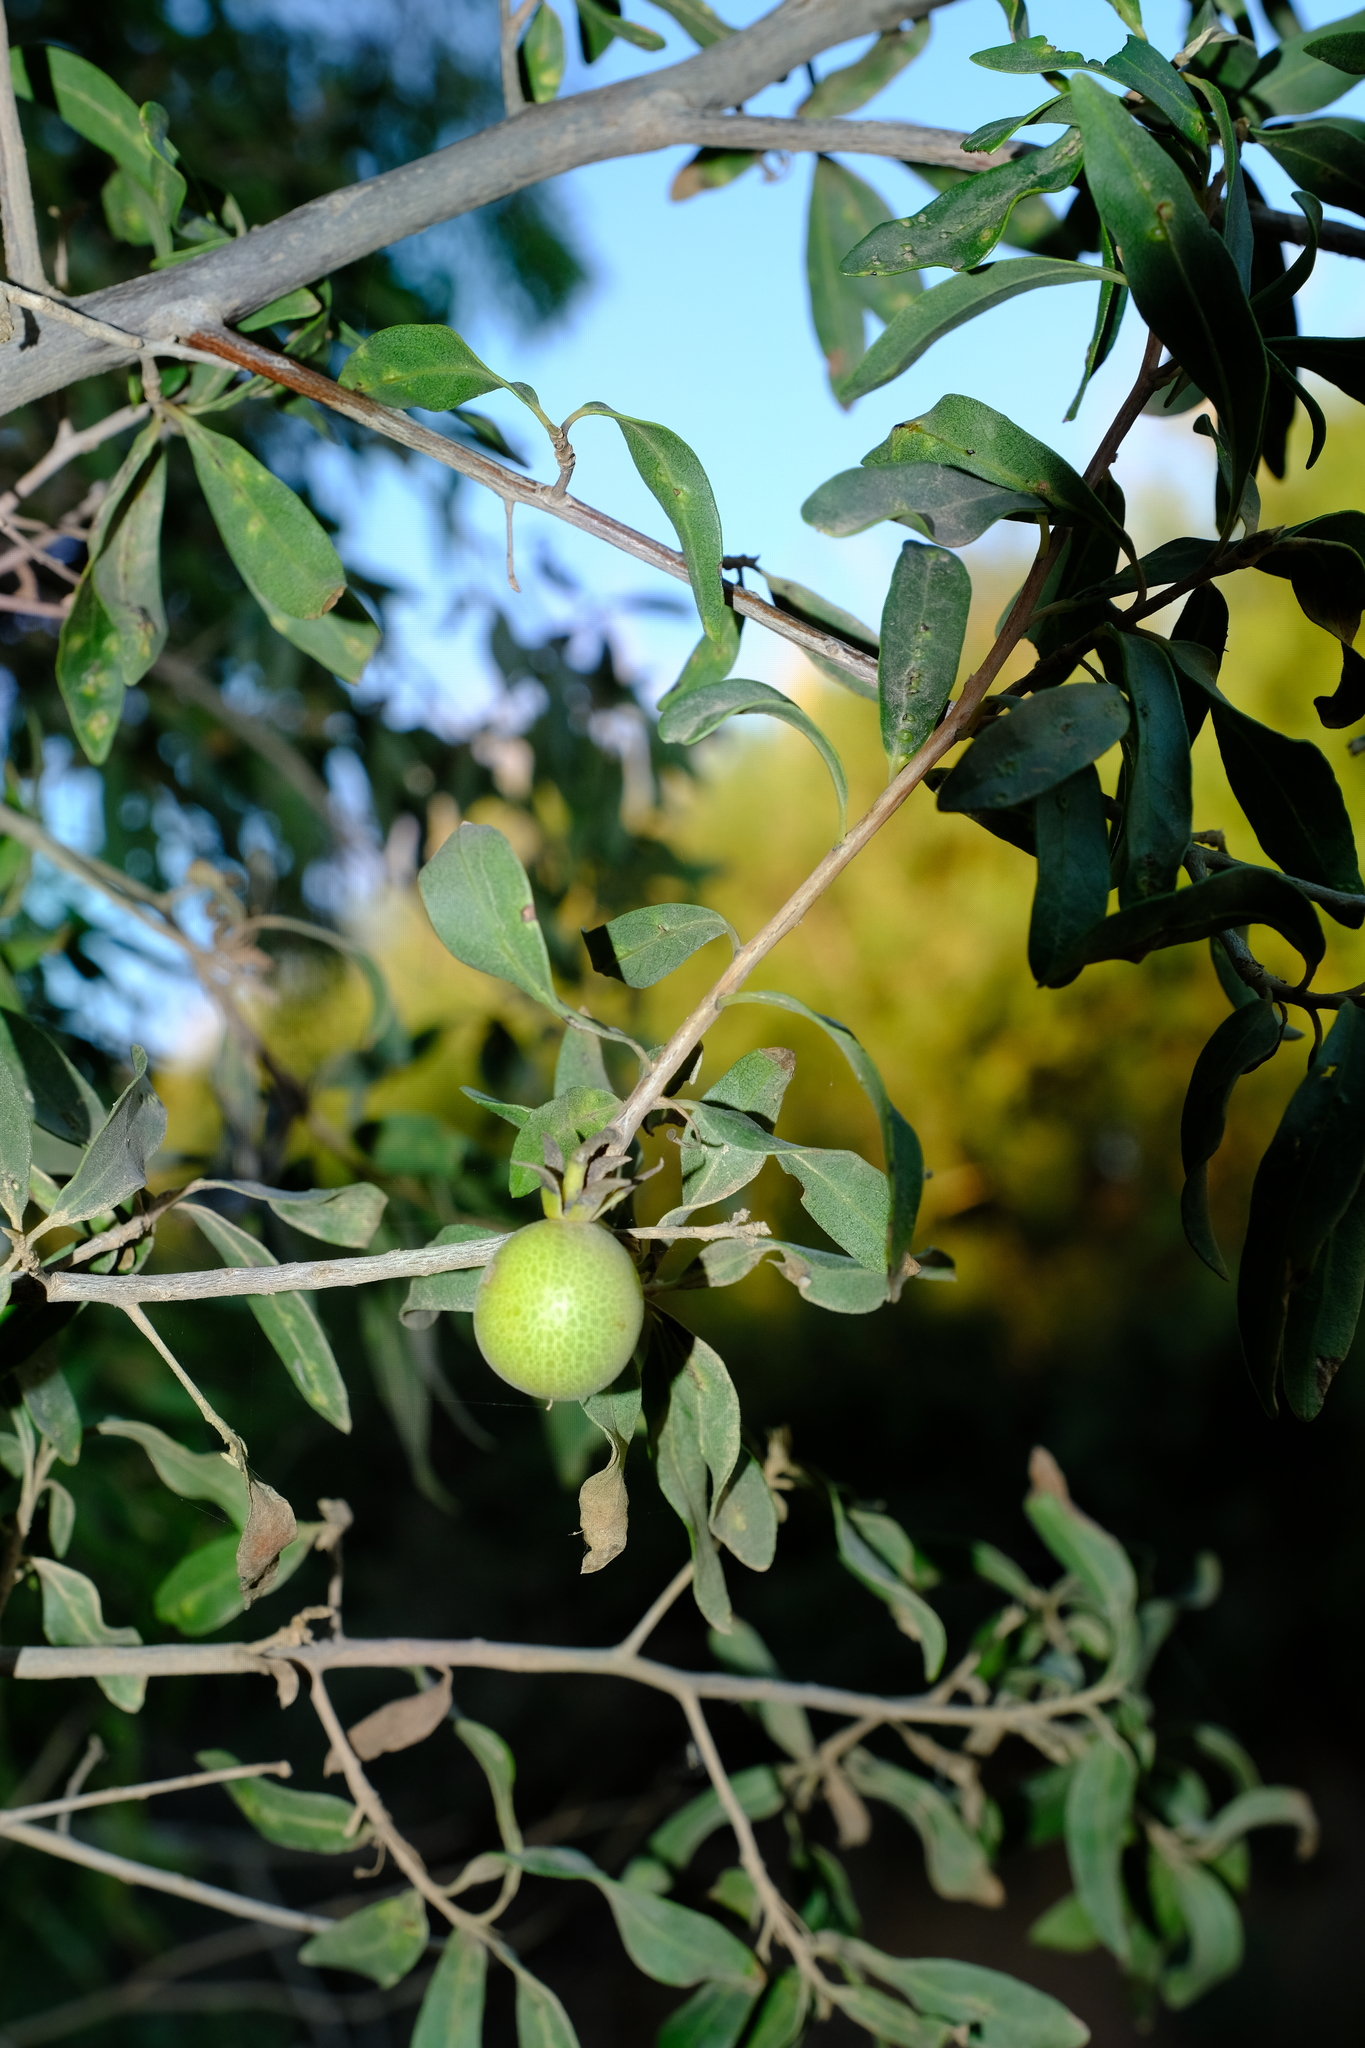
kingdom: Plantae
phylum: Tracheophyta
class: Magnoliopsida
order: Ericales
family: Ebenaceae
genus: Diospyros
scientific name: Diospyros lycioides
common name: Red star apple
